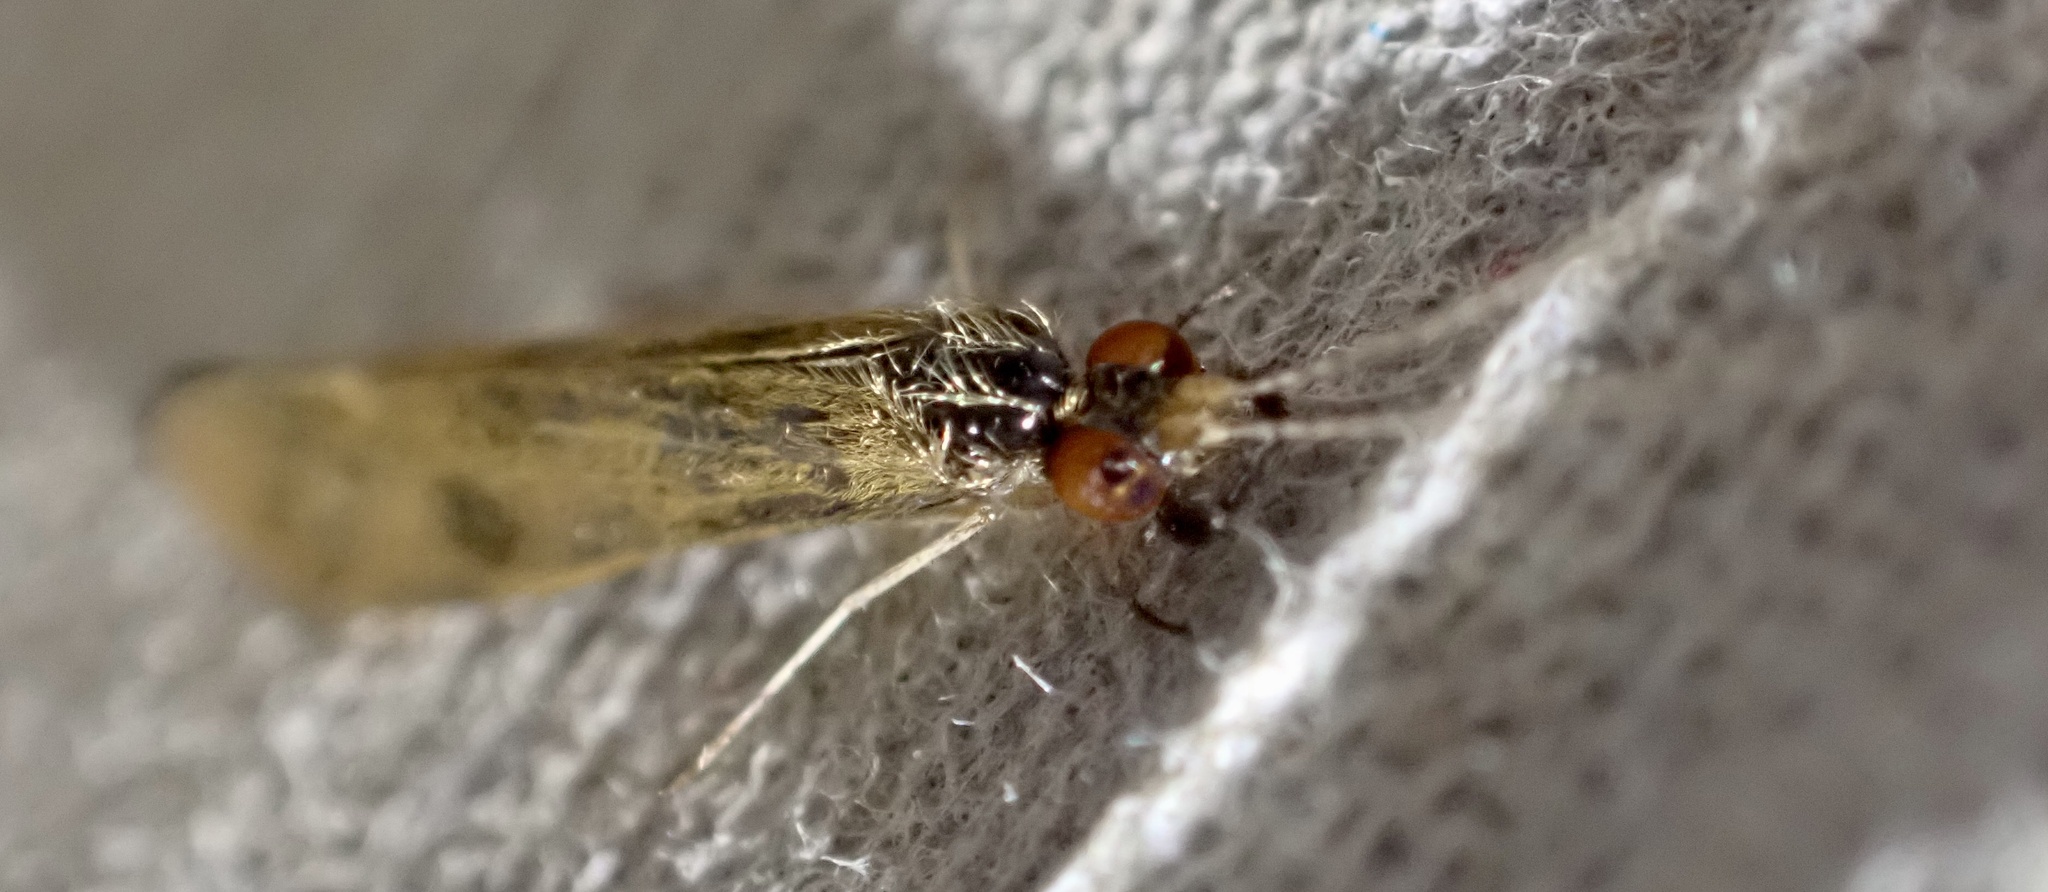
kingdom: Animalia
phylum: Arthropoda
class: Insecta
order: Trichoptera
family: Leptoceridae
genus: Mystacides
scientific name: Mystacides longicornis
